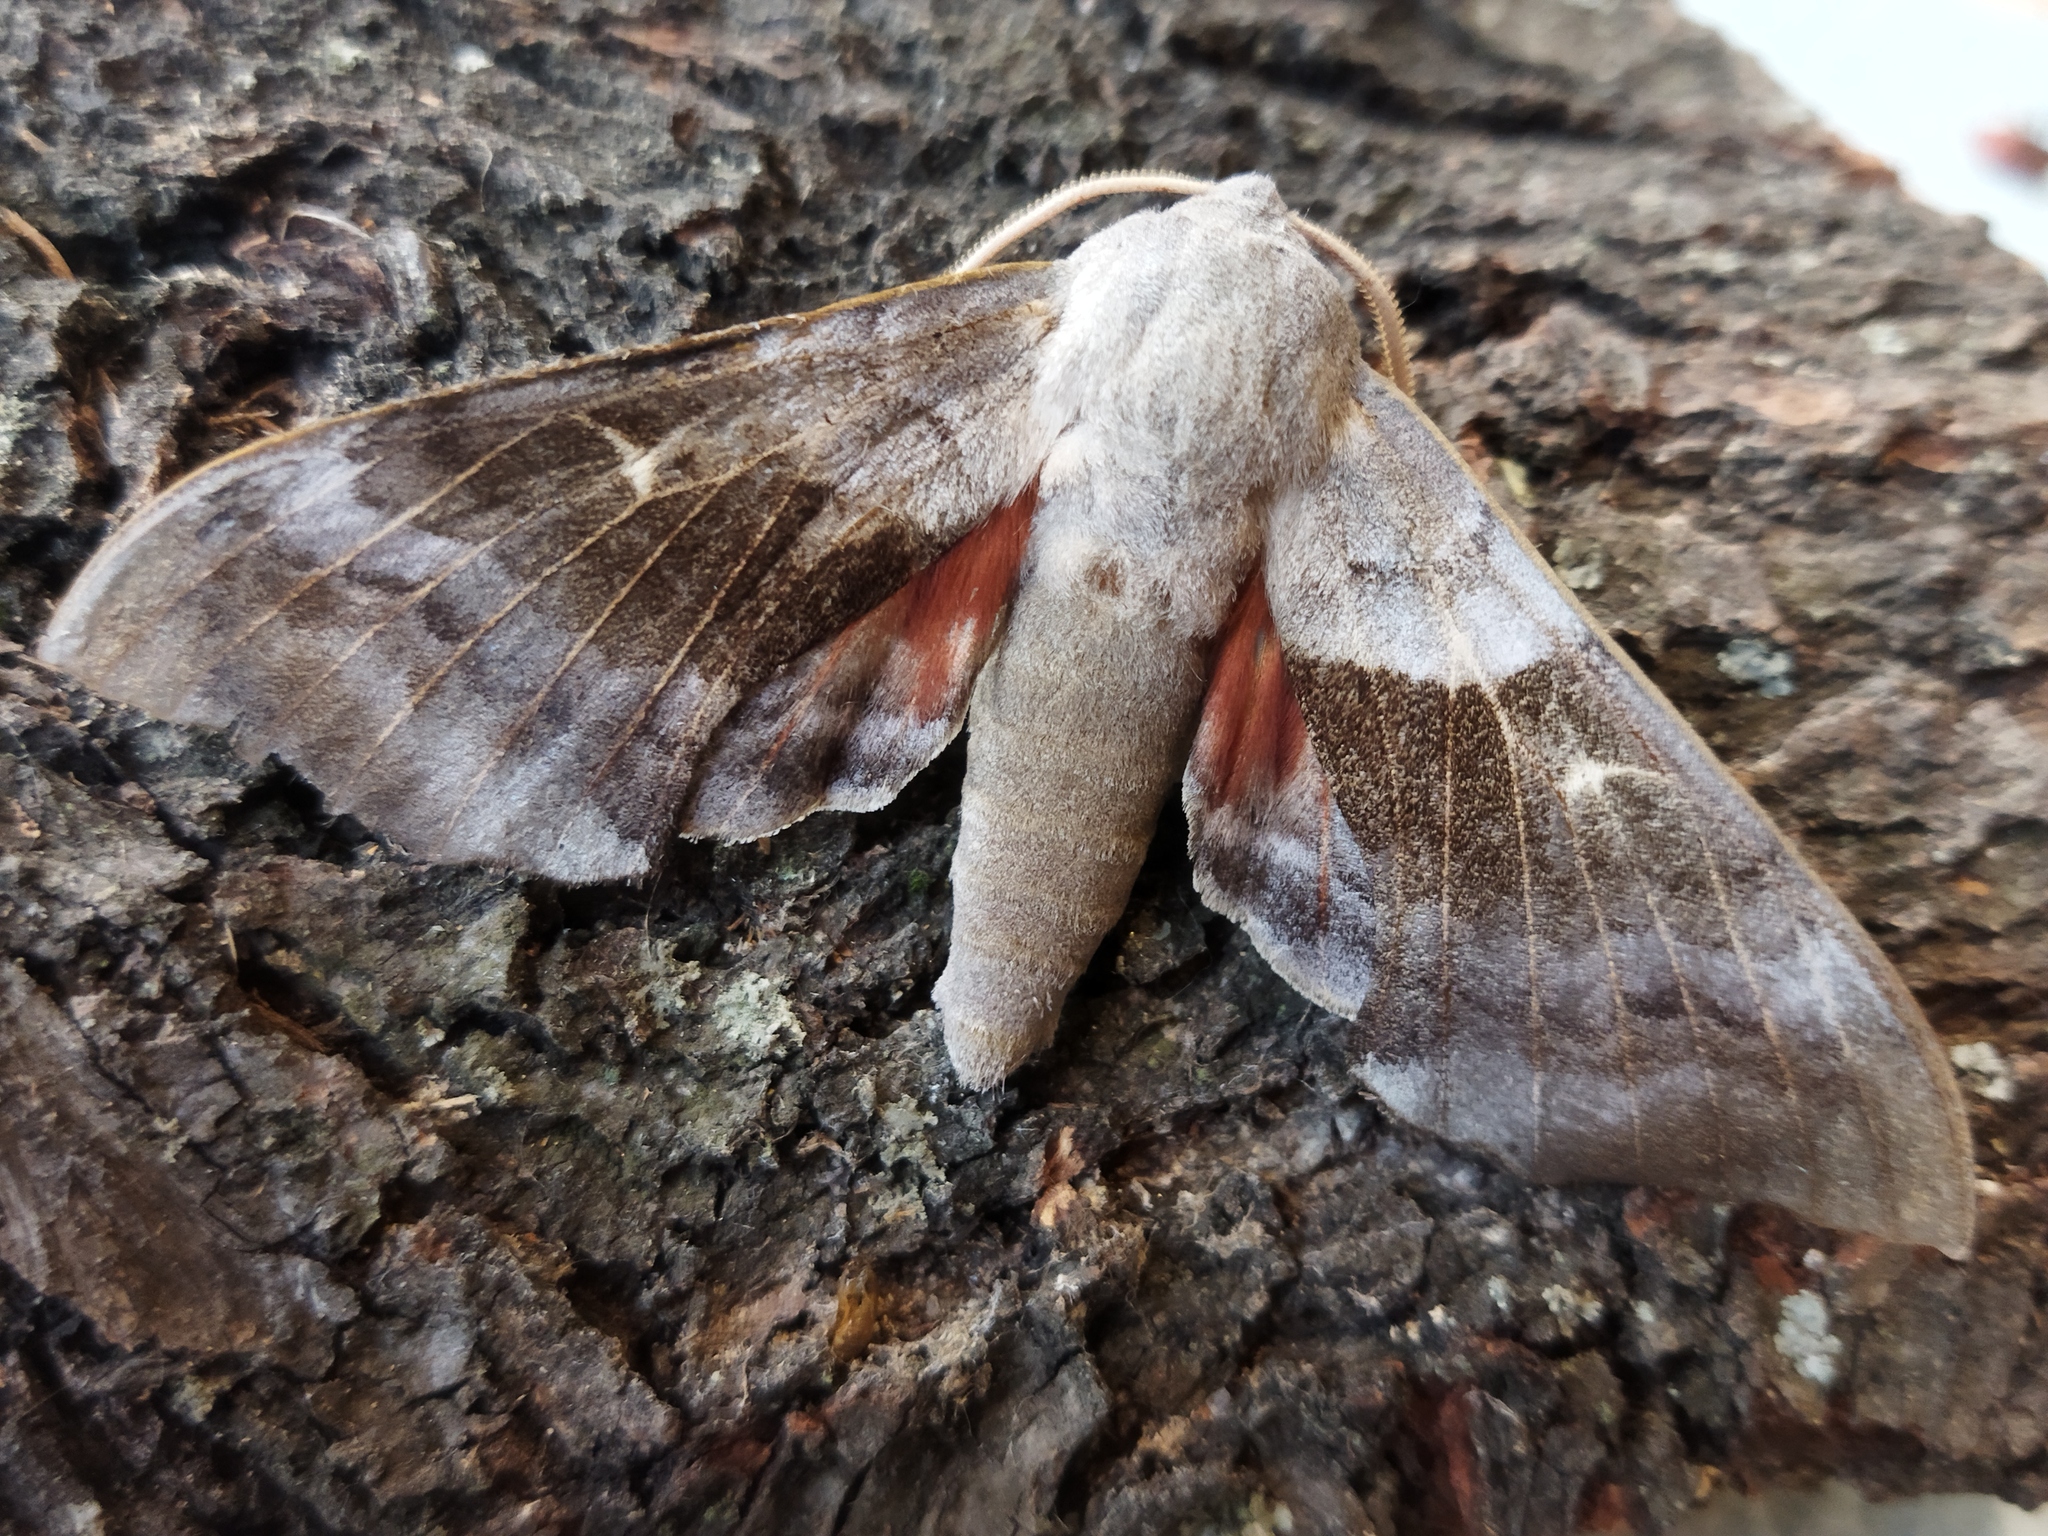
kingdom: Animalia
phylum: Arthropoda
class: Insecta
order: Lepidoptera
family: Sphingidae
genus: Laothoe
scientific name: Laothoe populi
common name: Poplar hawk-moth
